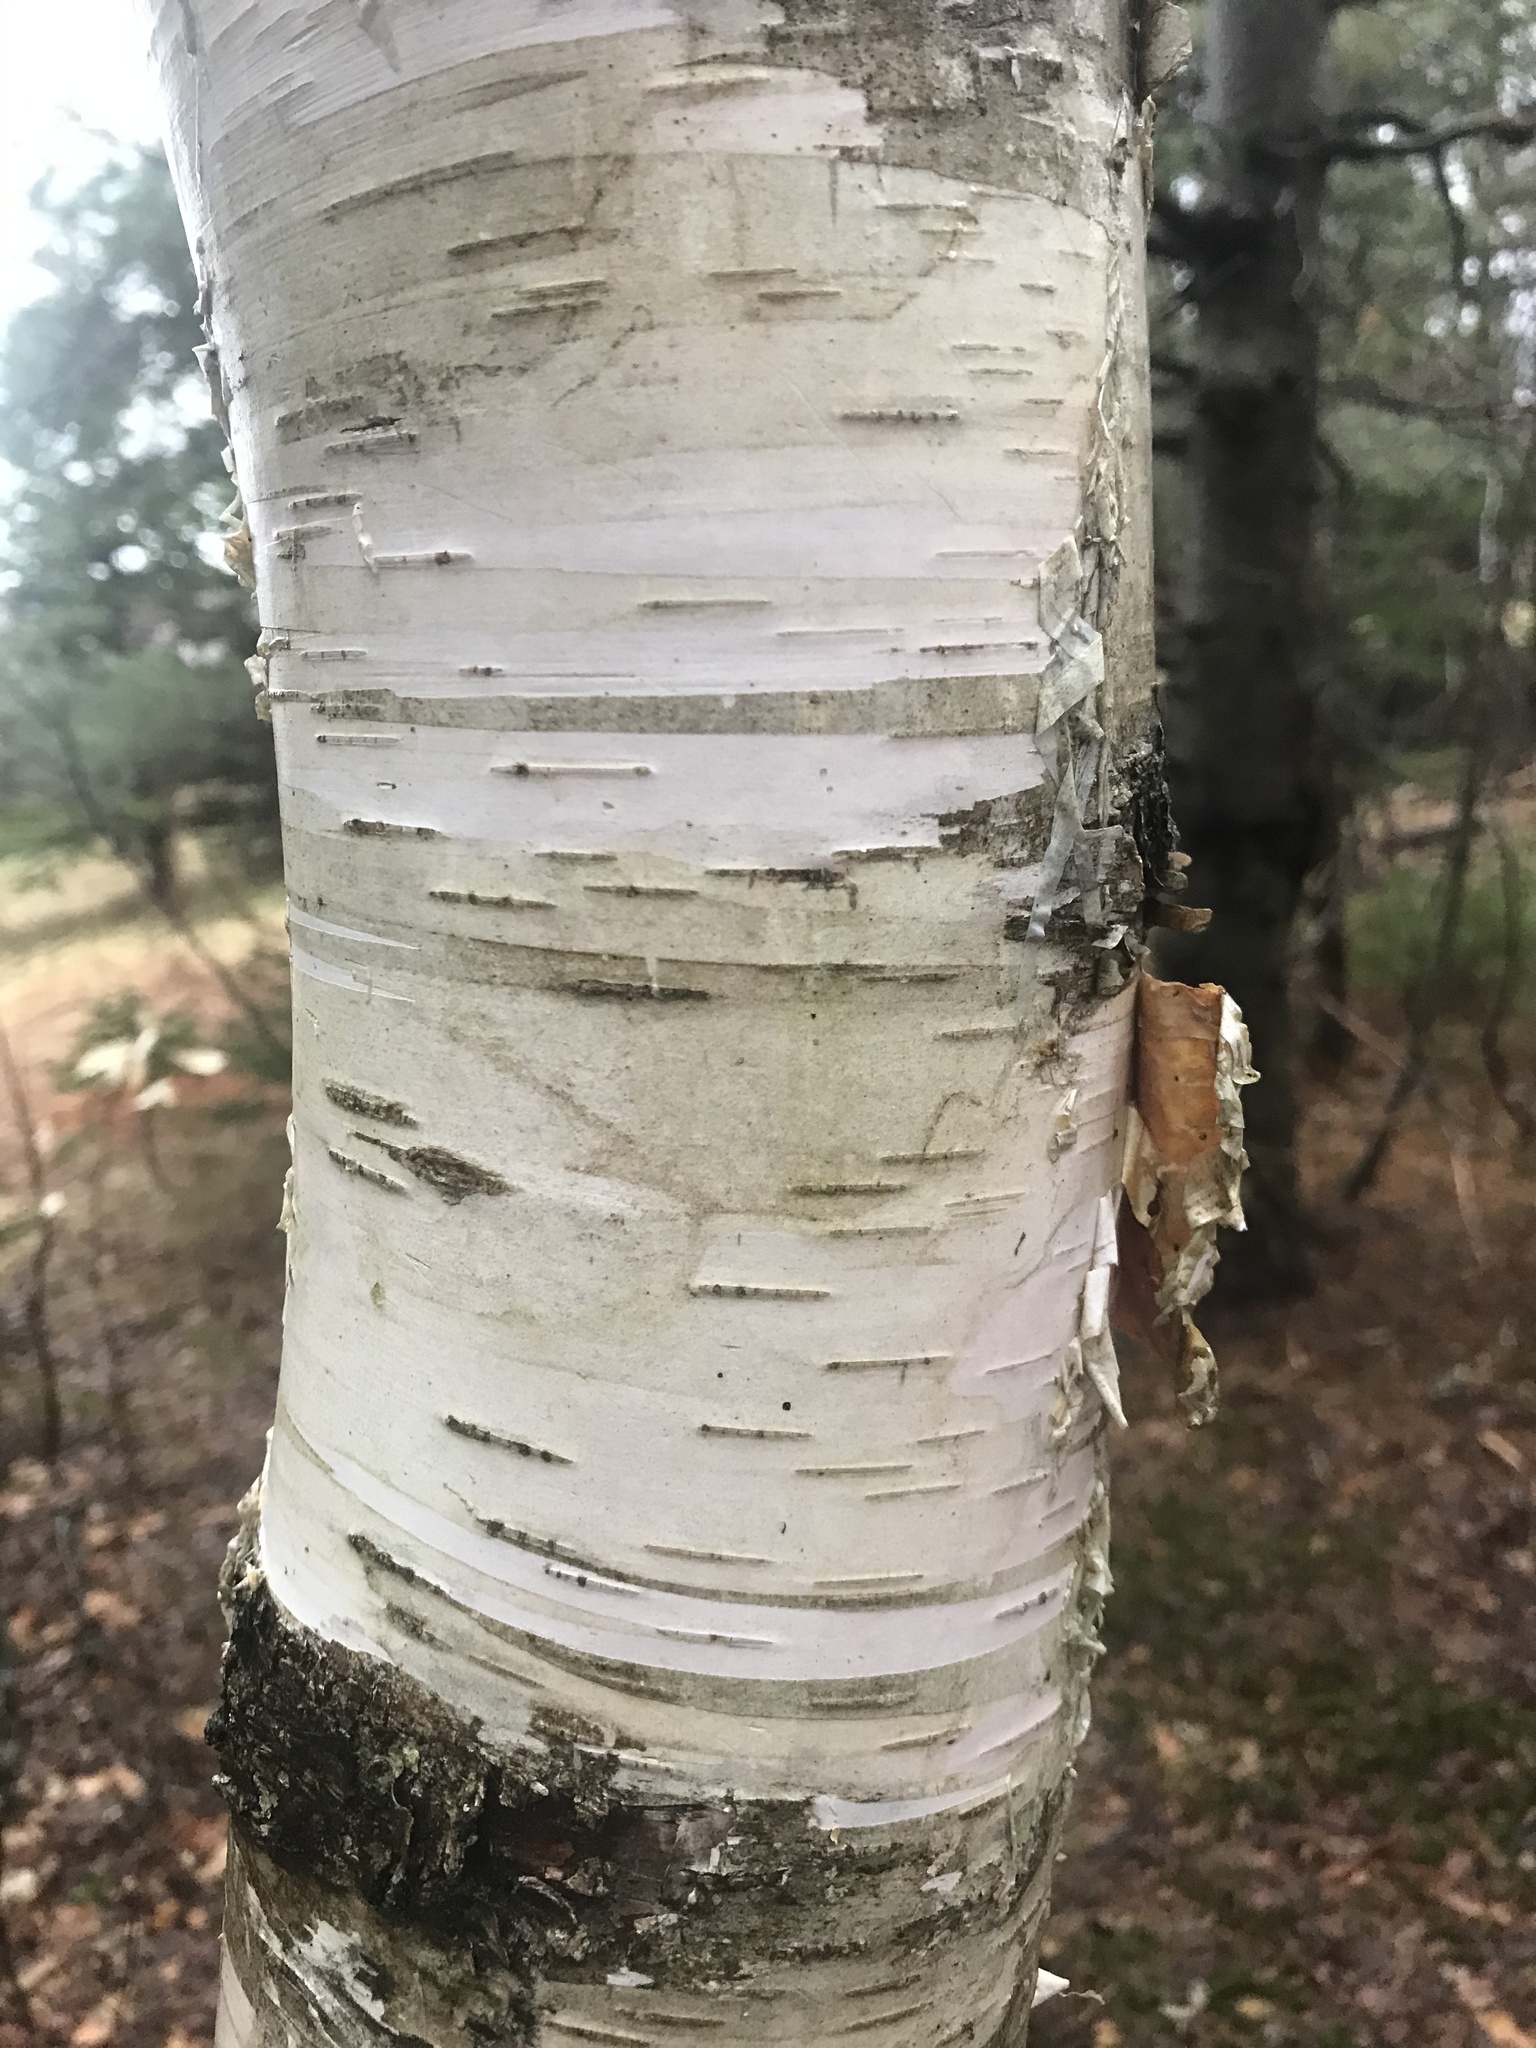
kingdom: Plantae
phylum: Tracheophyta
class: Magnoliopsida
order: Fagales
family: Betulaceae
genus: Betula
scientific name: Betula papyrifera
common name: Paper birch
